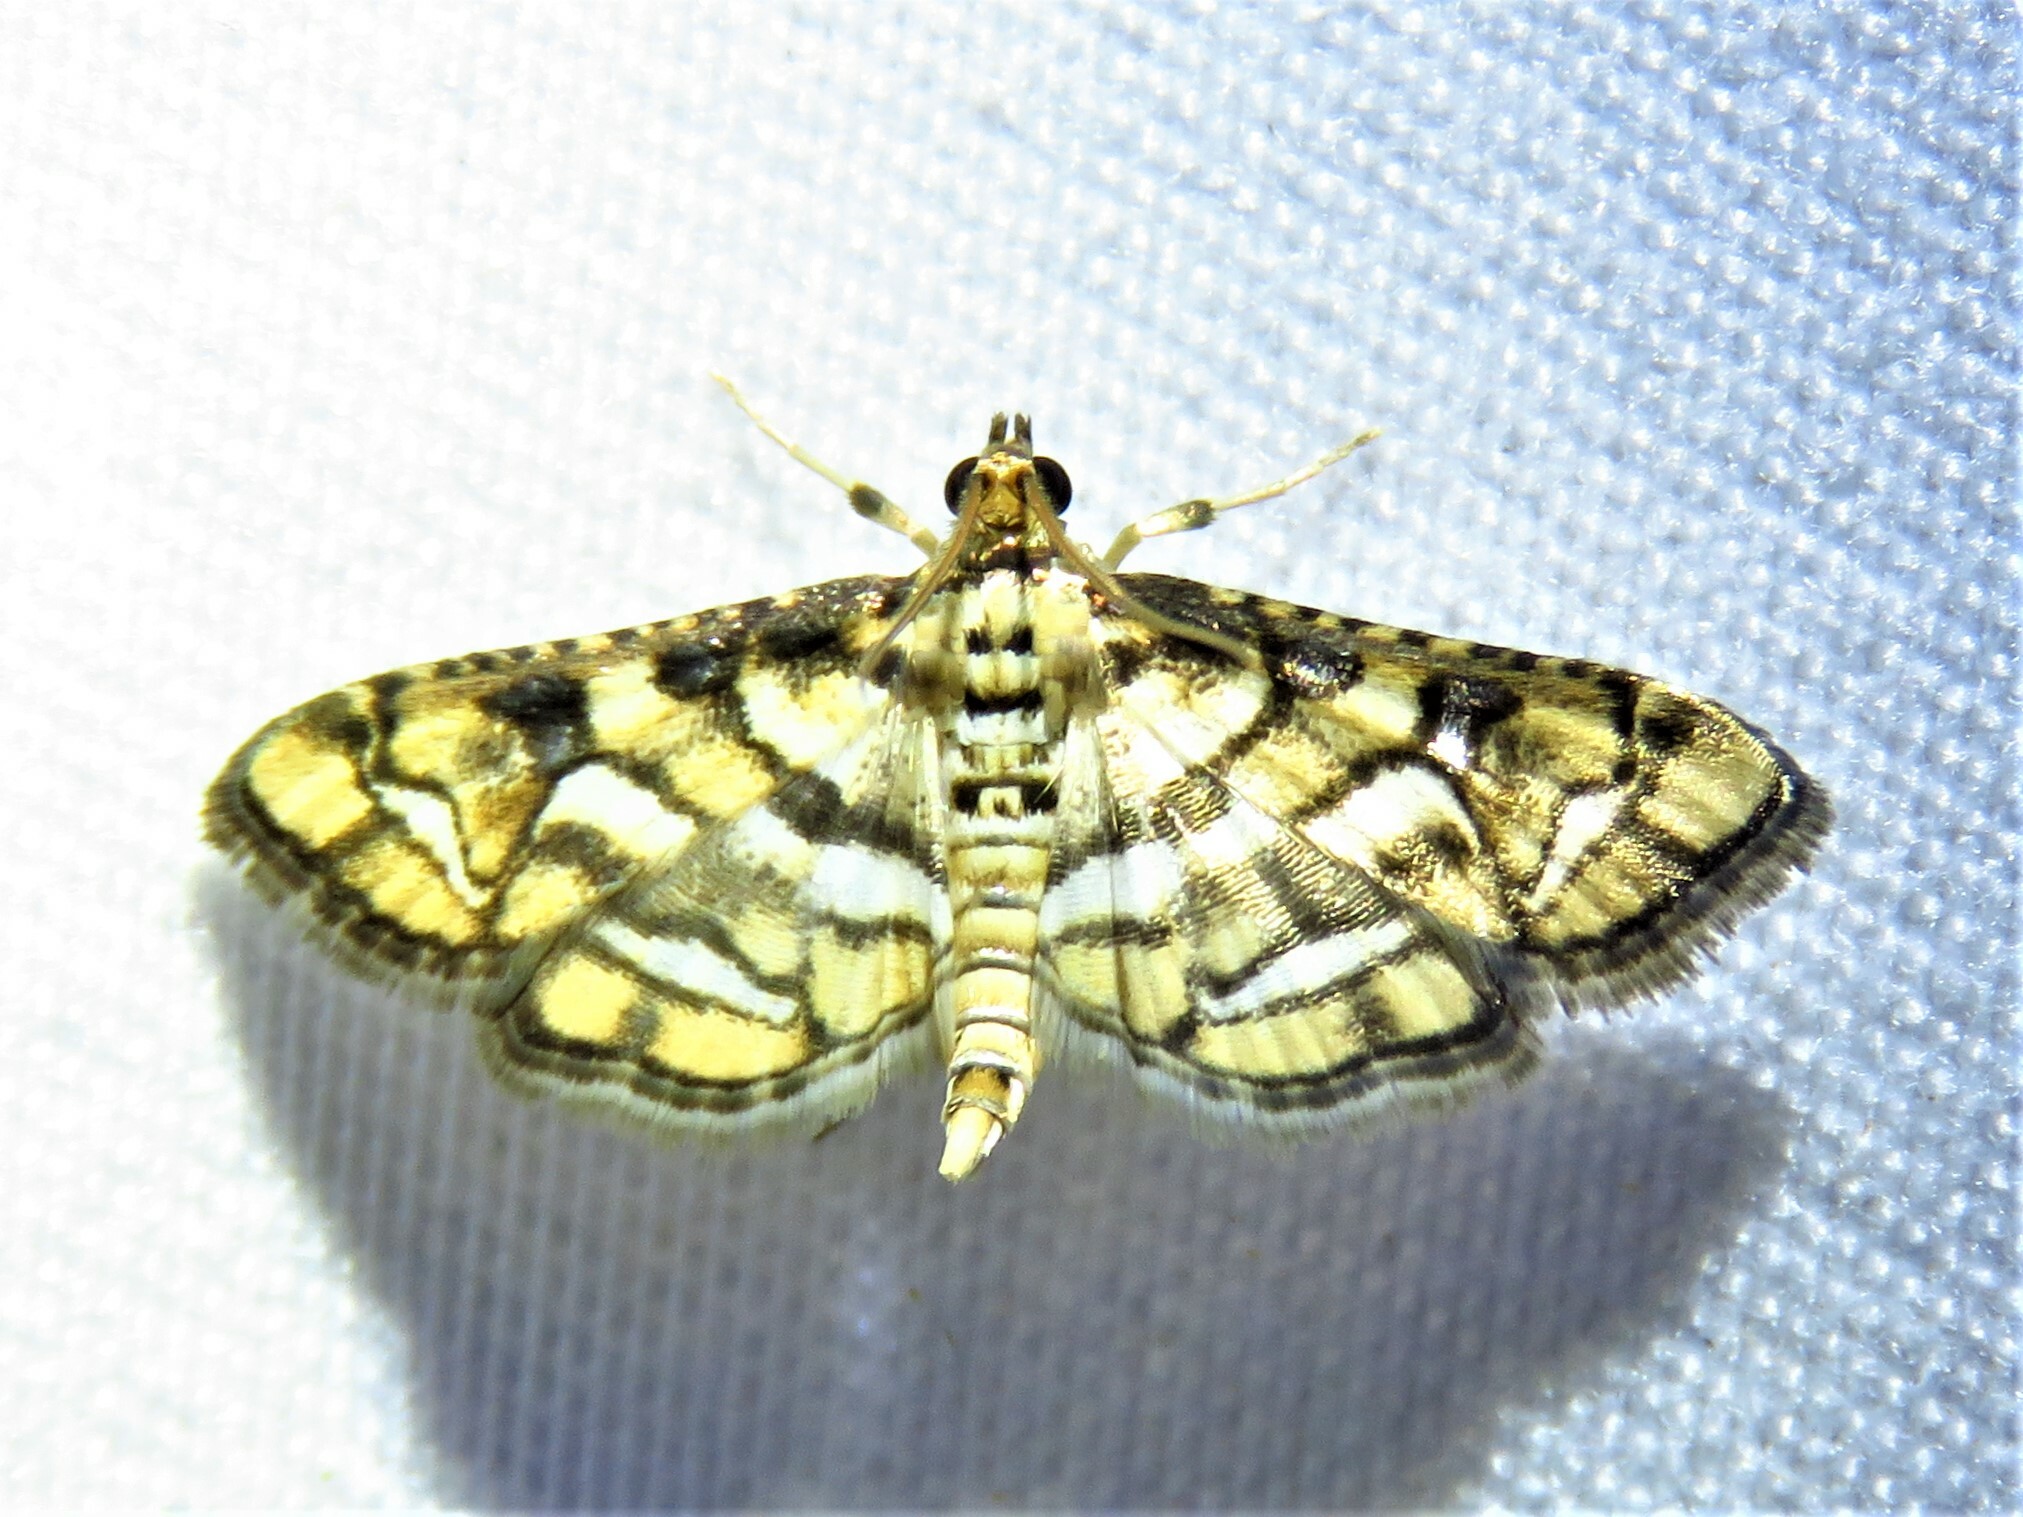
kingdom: Animalia
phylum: Arthropoda
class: Insecta
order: Lepidoptera
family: Crambidae
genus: Hileithia
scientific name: Hileithia magualis
